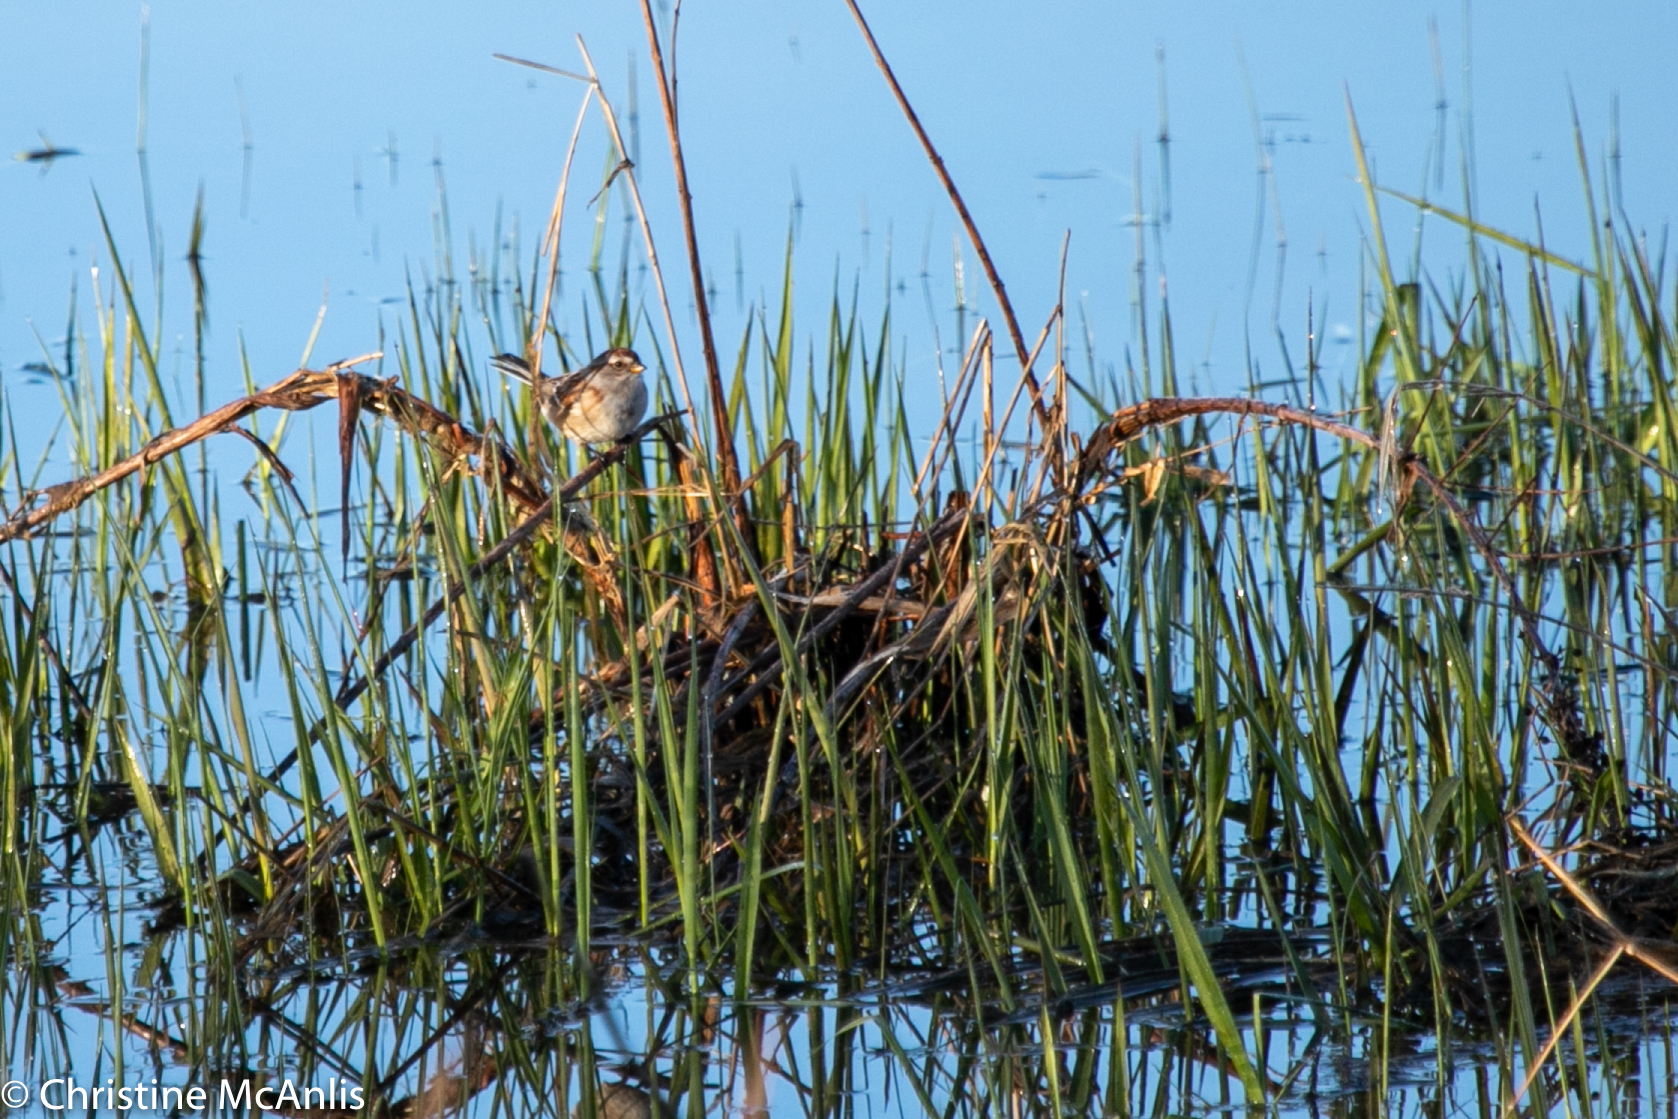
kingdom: Animalia
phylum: Chordata
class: Aves
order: Passeriformes
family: Passerellidae
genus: Spizelloides
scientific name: Spizelloides arborea
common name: American tree sparrow
